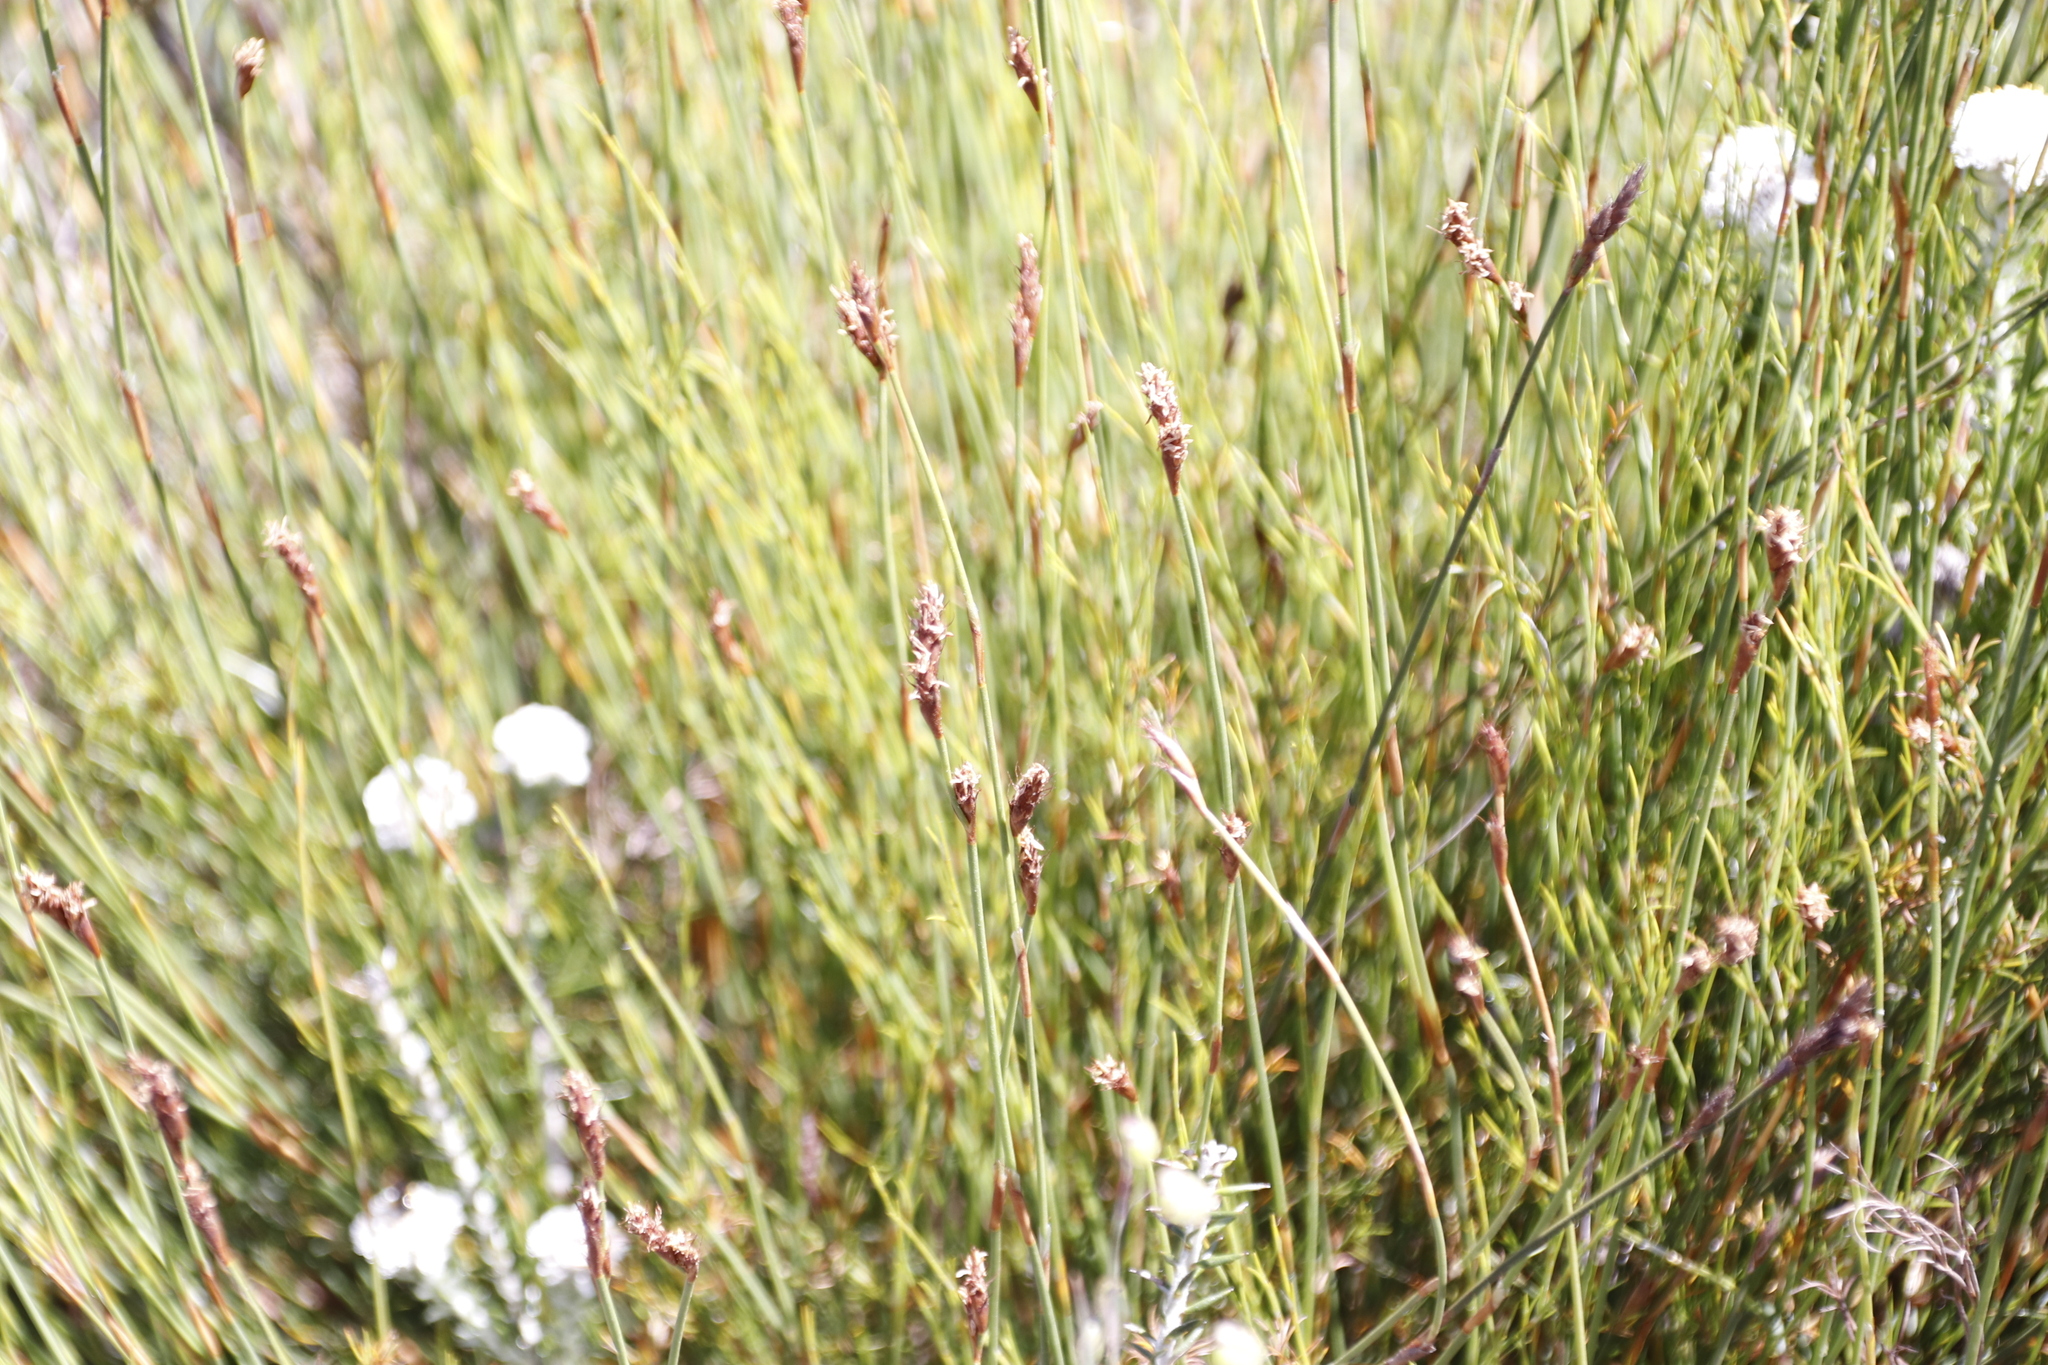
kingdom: Plantae
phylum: Tracheophyta
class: Liliopsida
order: Poales
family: Restionaceae
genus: Restio
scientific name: Restio capensis
